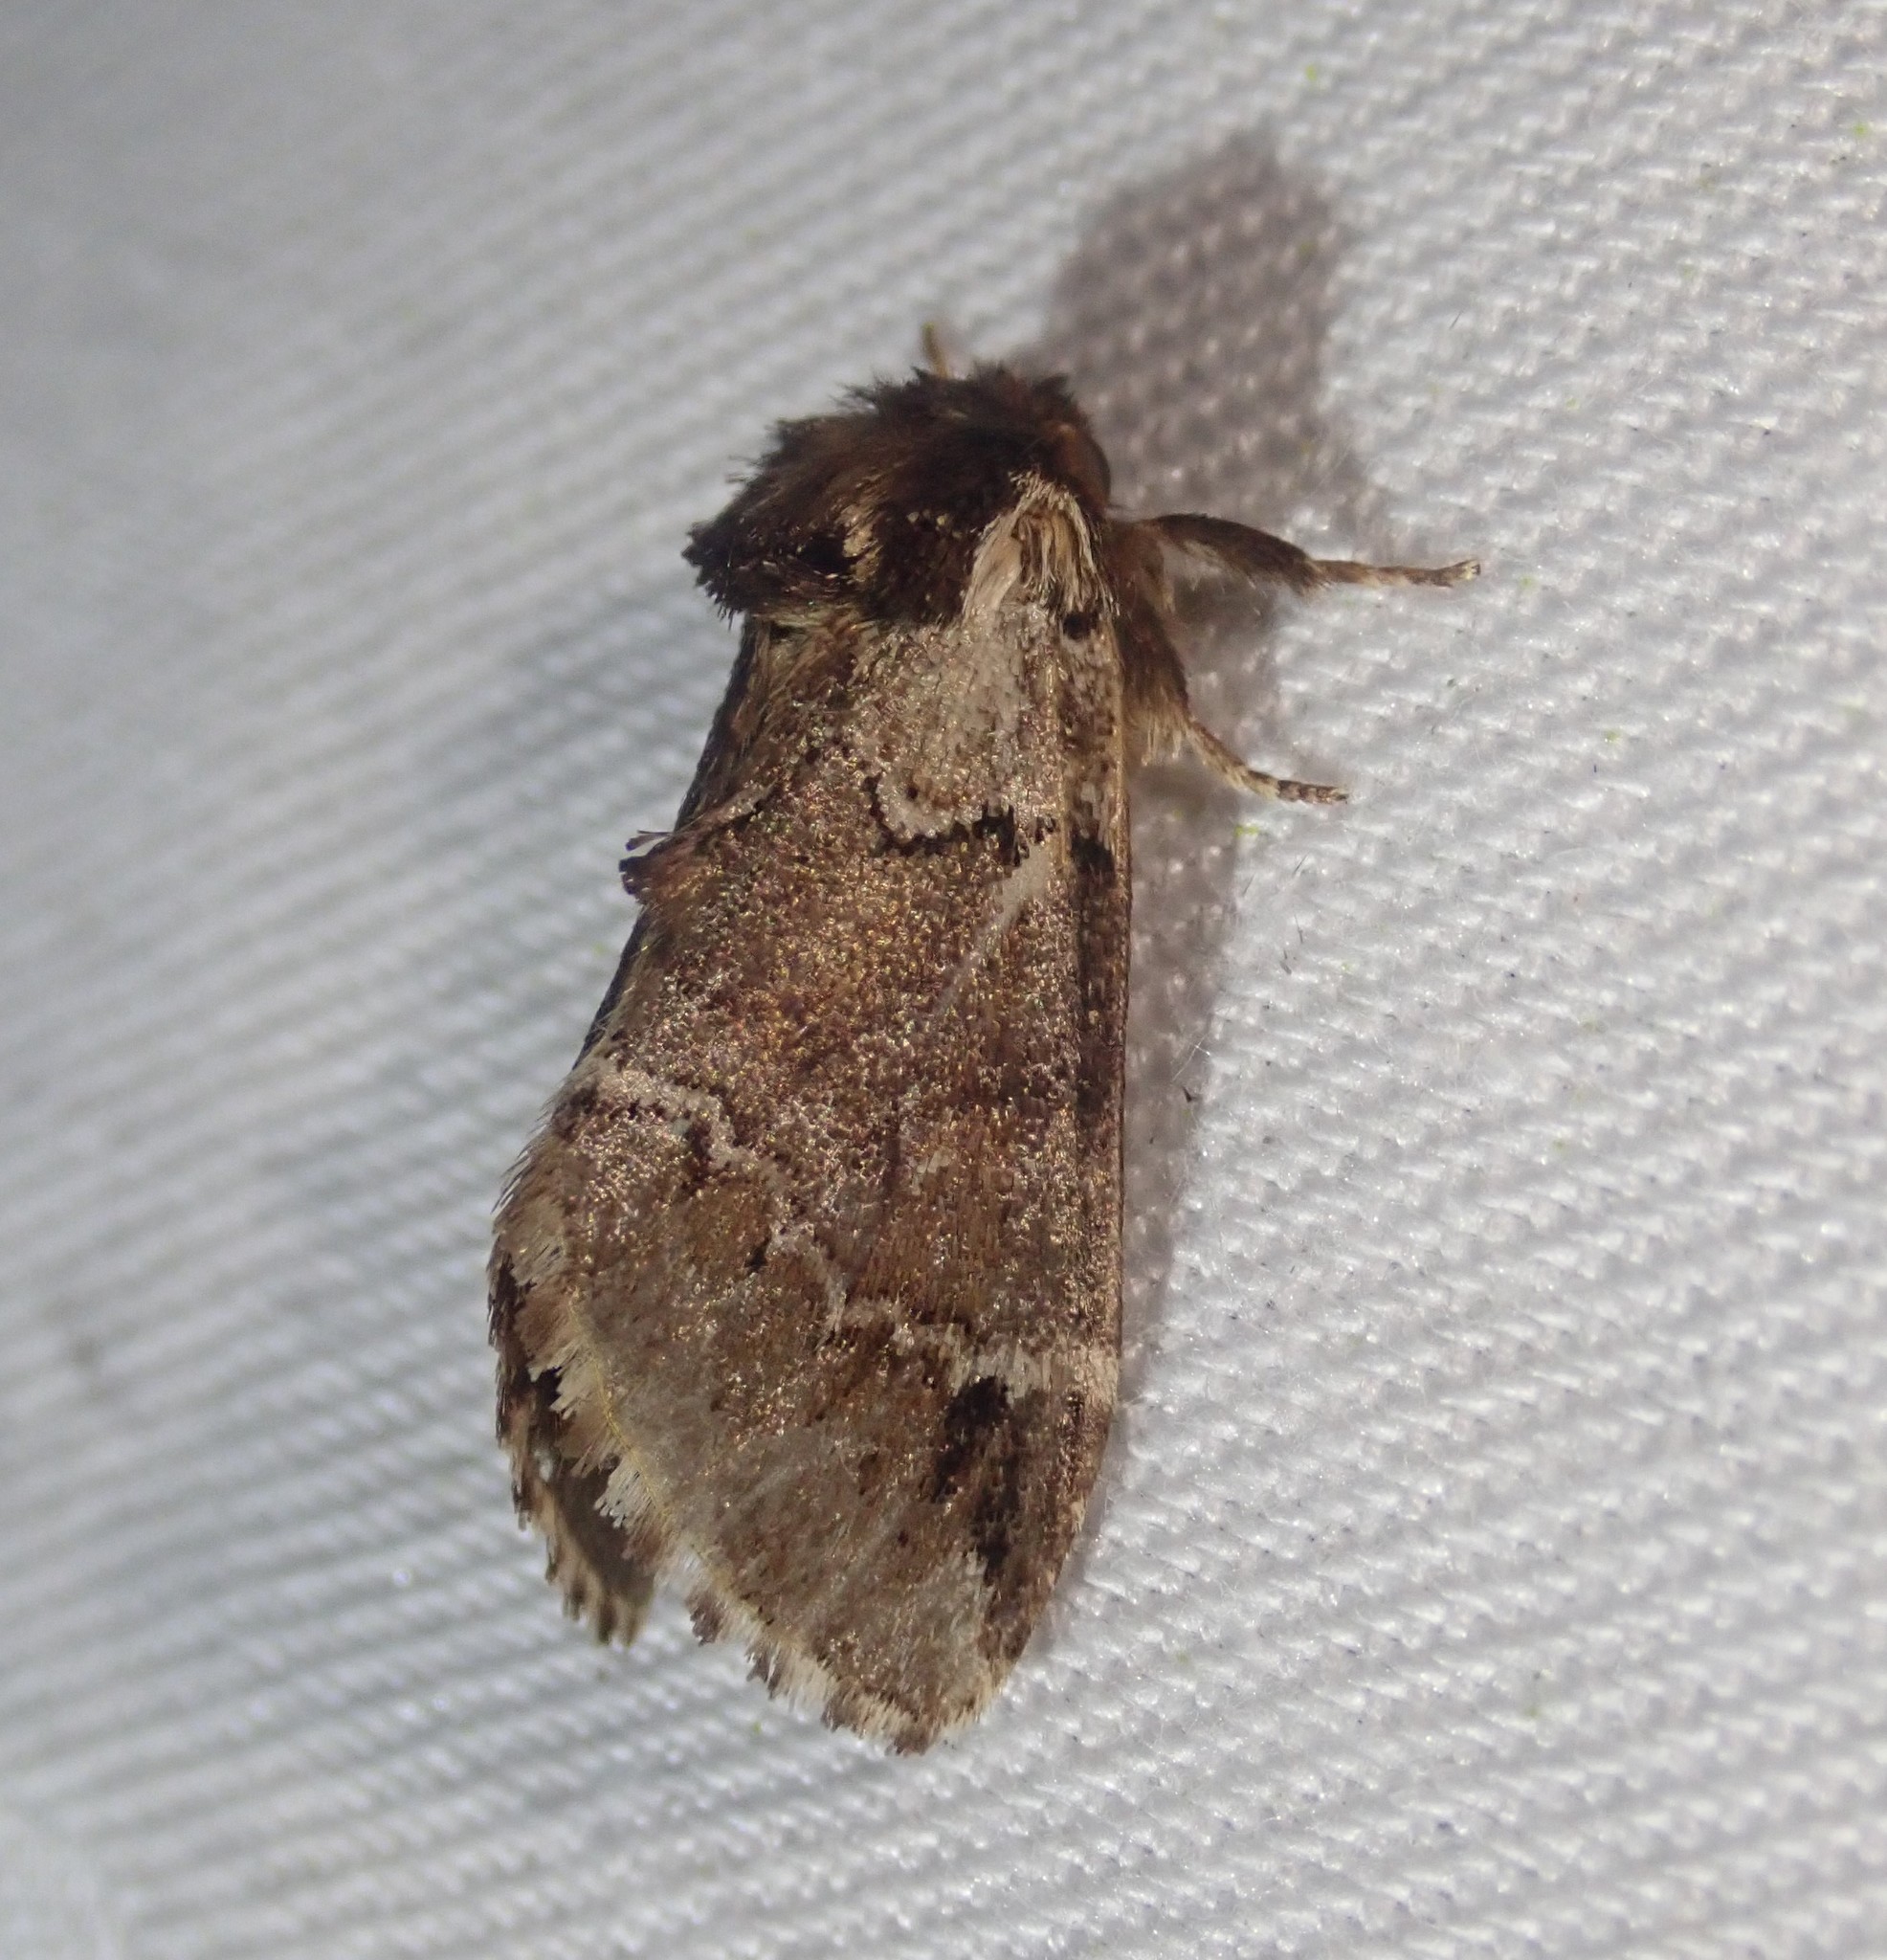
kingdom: Animalia
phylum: Arthropoda
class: Insecta
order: Lepidoptera
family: Notodontidae
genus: Drymonia
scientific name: Drymonia obliterata
